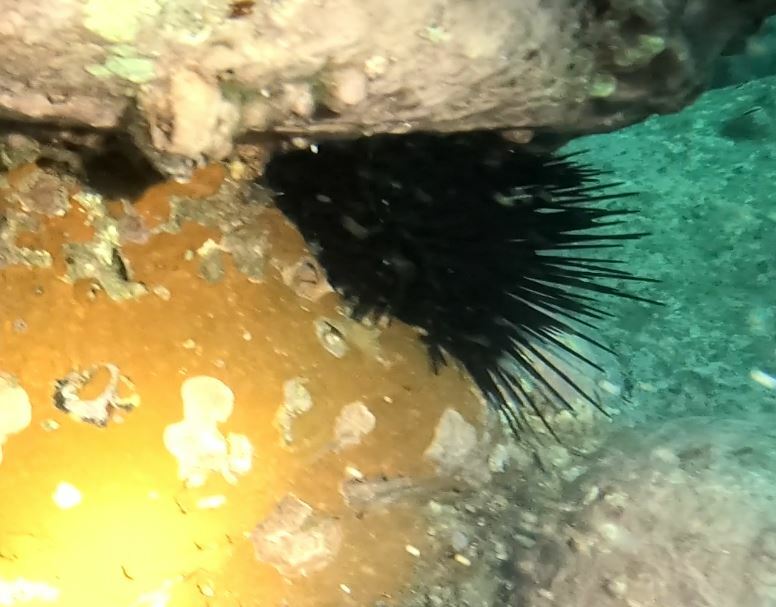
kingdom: Animalia
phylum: Echinodermata
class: Echinoidea
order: Diadematoida
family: Diadematidae
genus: Centrostephanus
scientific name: Centrostephanus rodgersii
